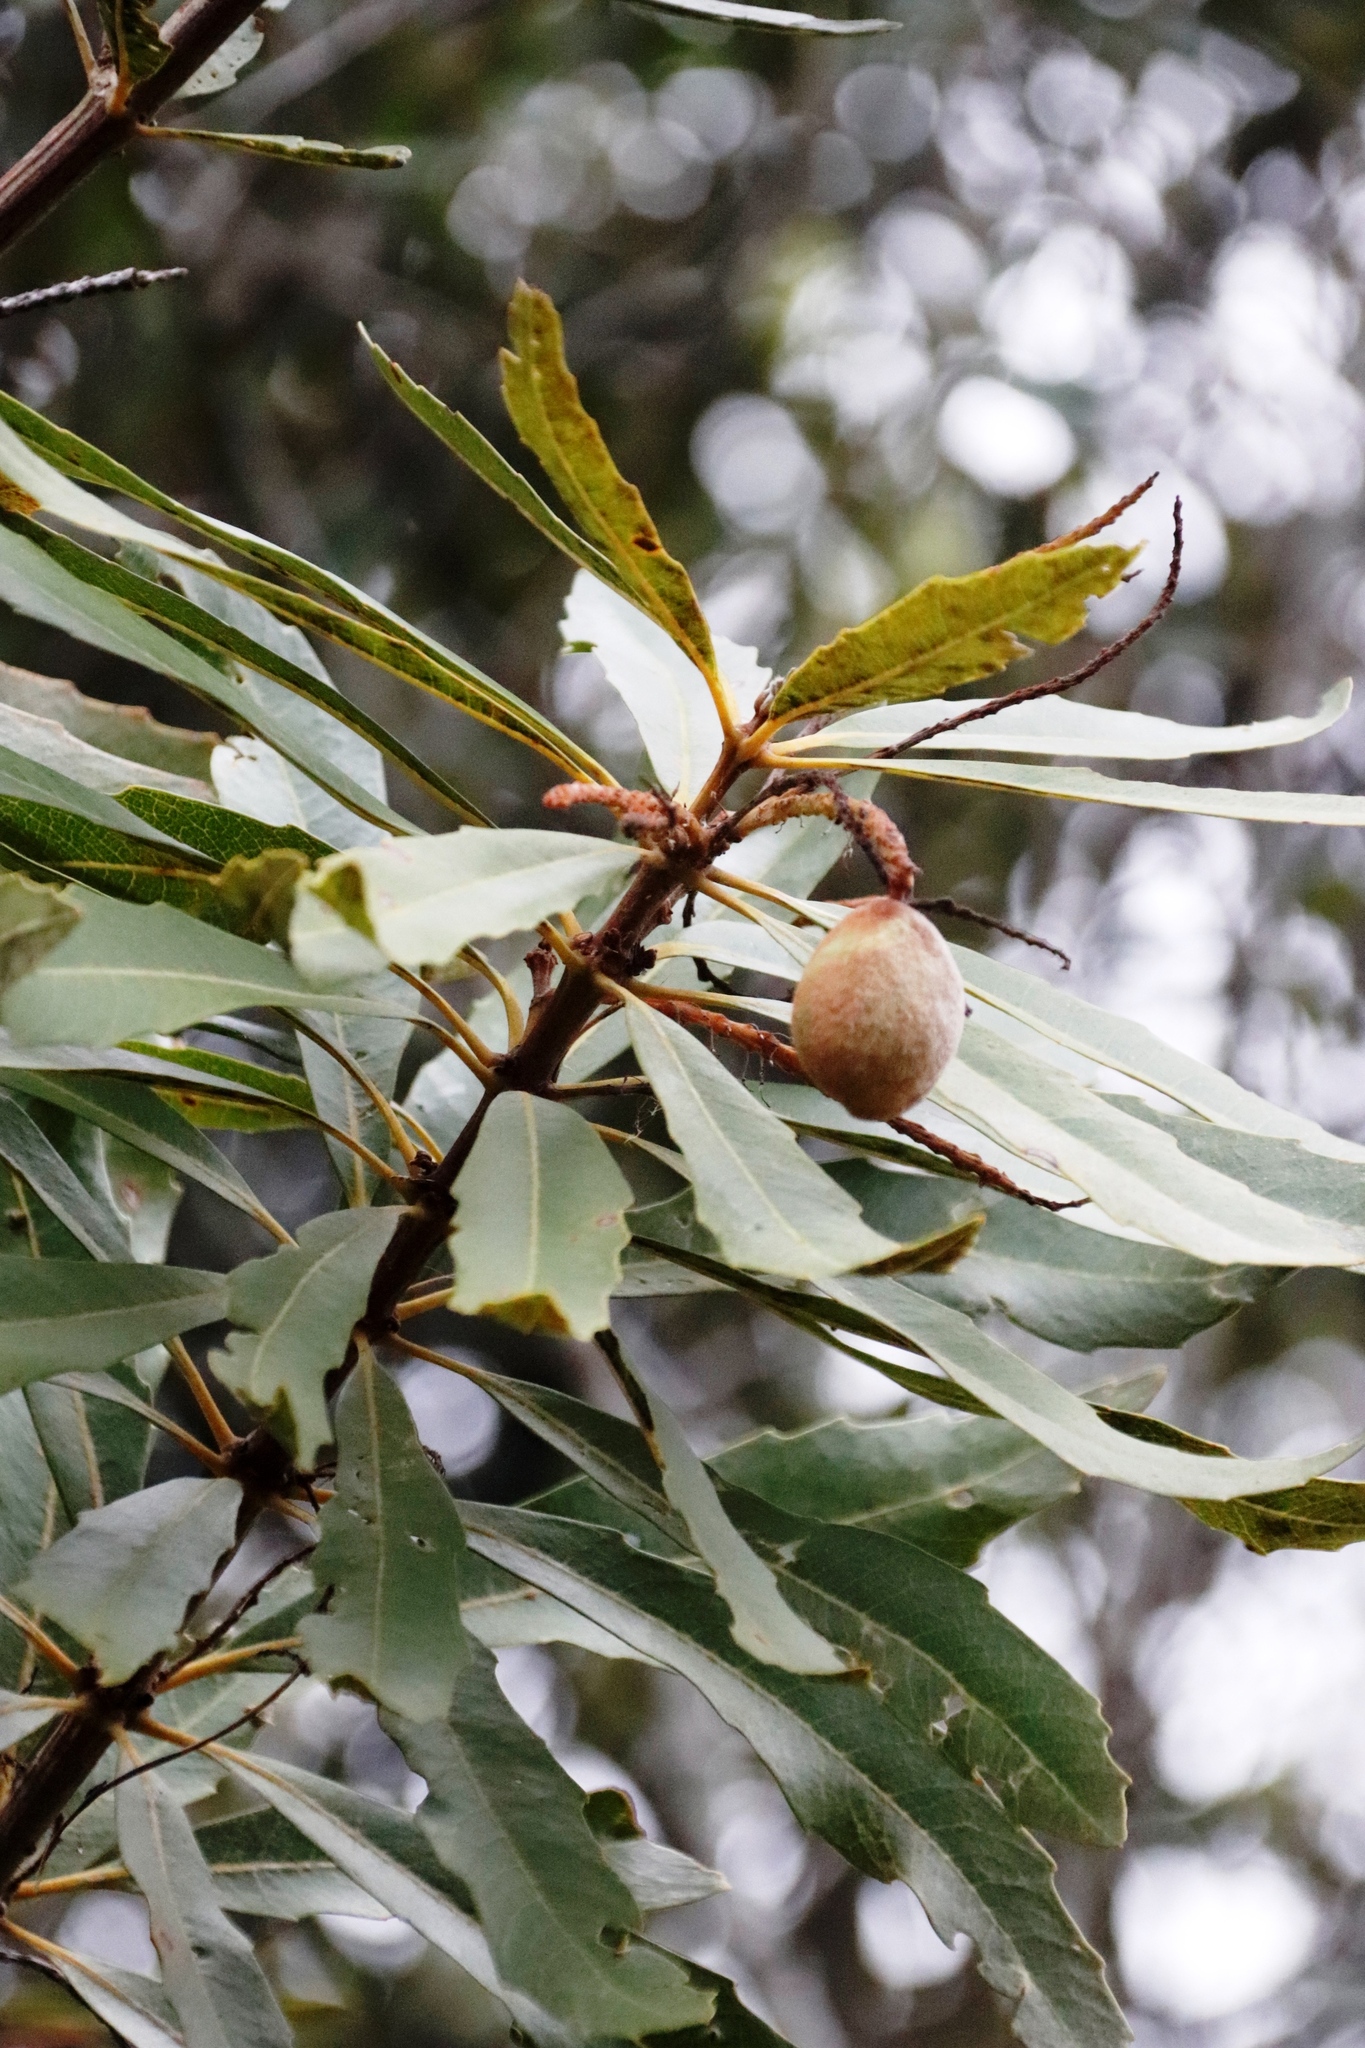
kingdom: Plantae
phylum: Tracheophyta
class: Magnoliopsida
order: Proteales
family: Proteaceae
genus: Brabejum
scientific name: Brabejum stellatifolium
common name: Wild almond
